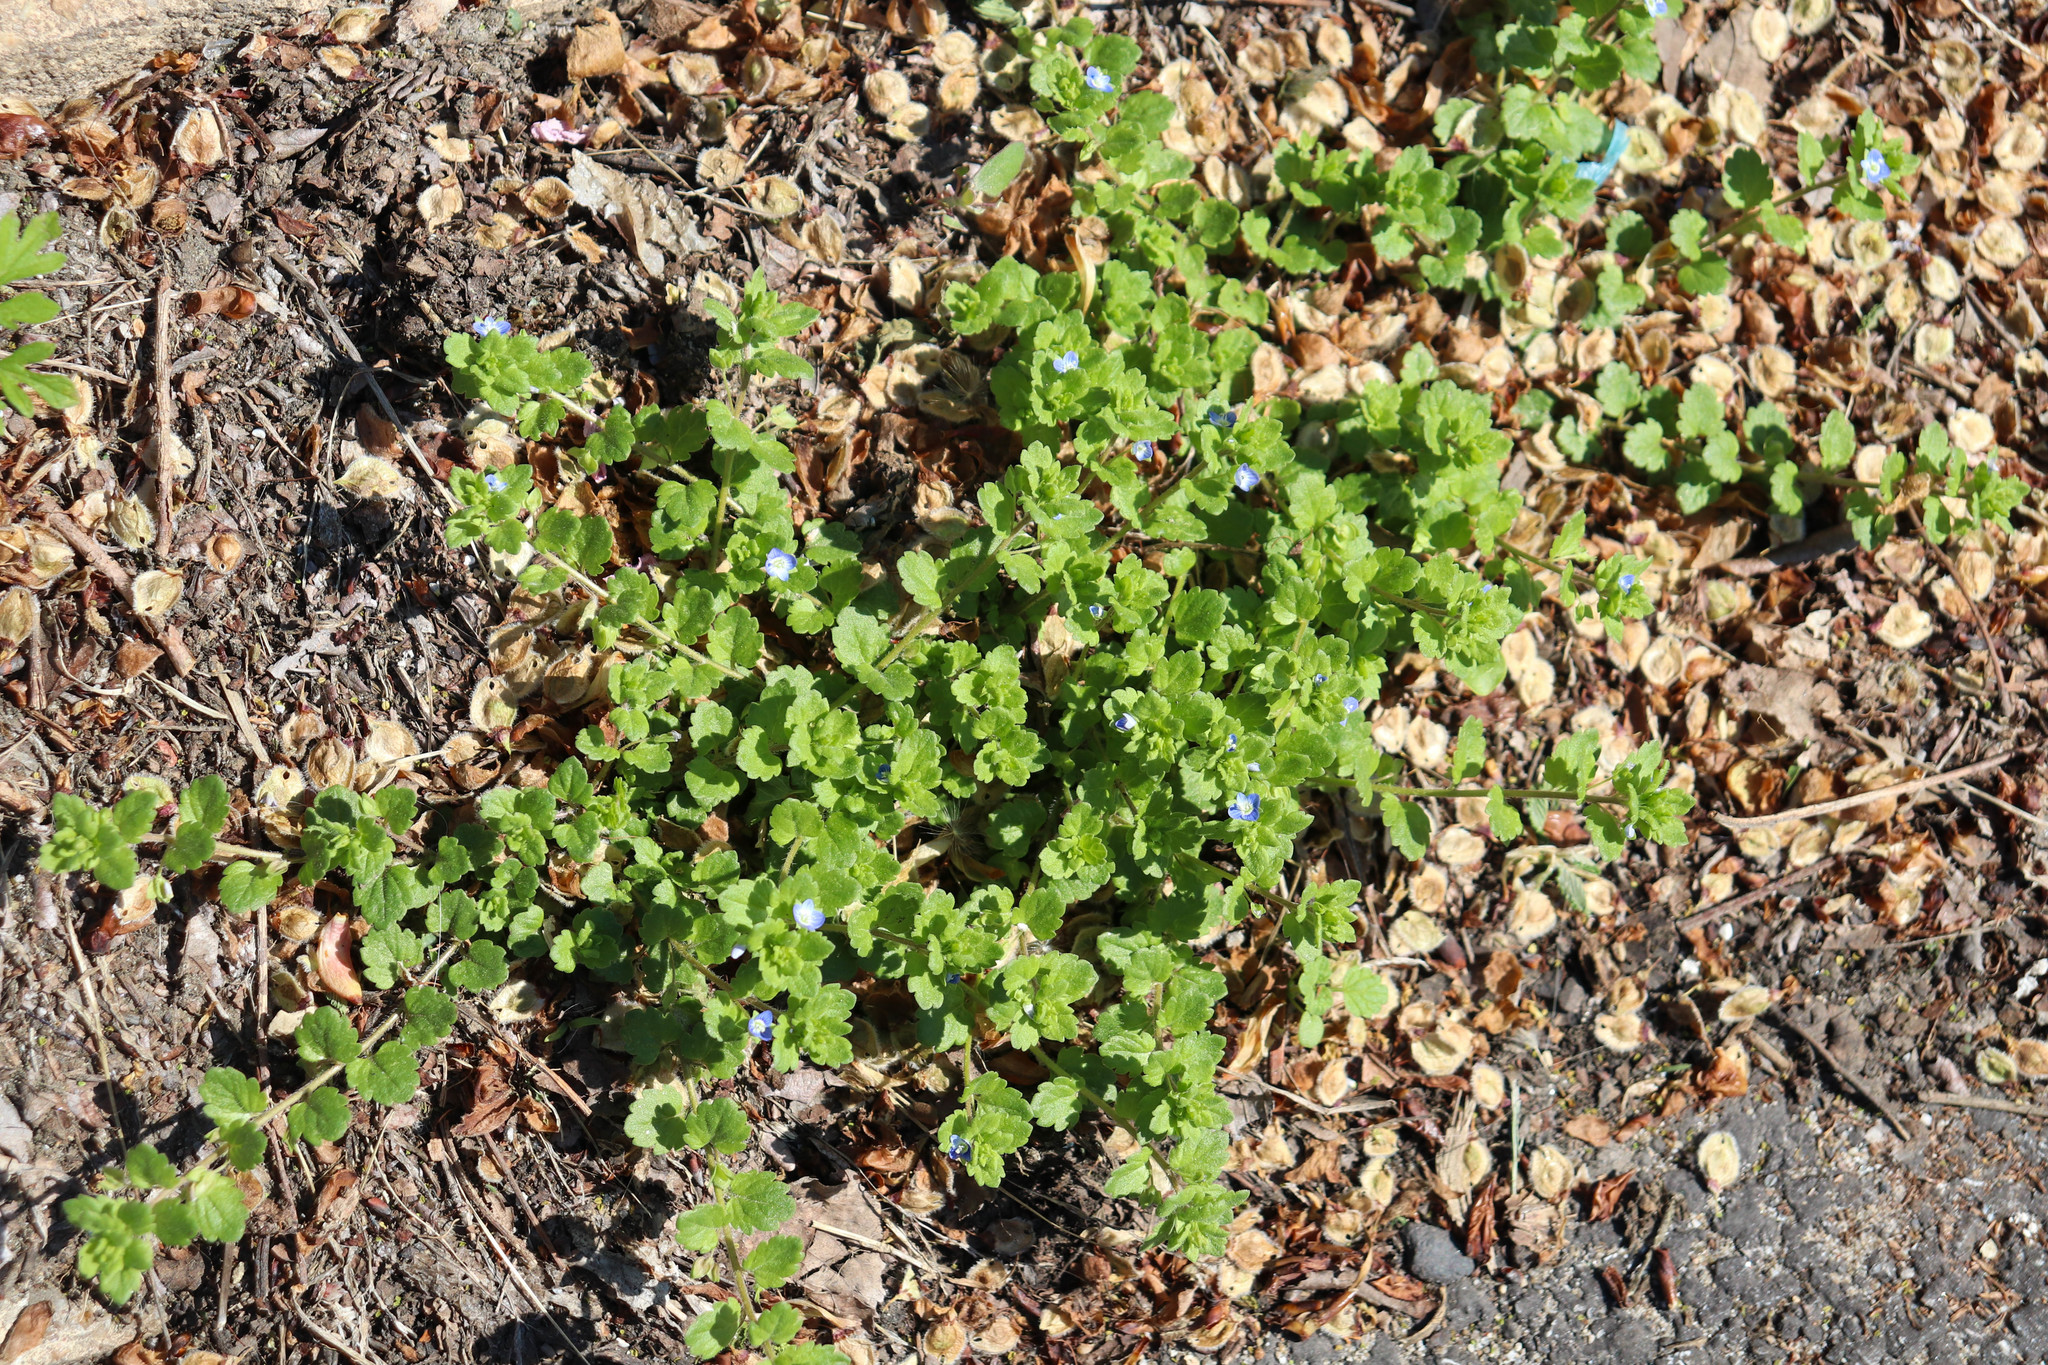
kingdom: Plantae
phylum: Tracheophyta
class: Magnoliopsida
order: Lamiales
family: Plantaginaceae
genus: Veronica
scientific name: Veronica persica
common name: Common field-speedwell
